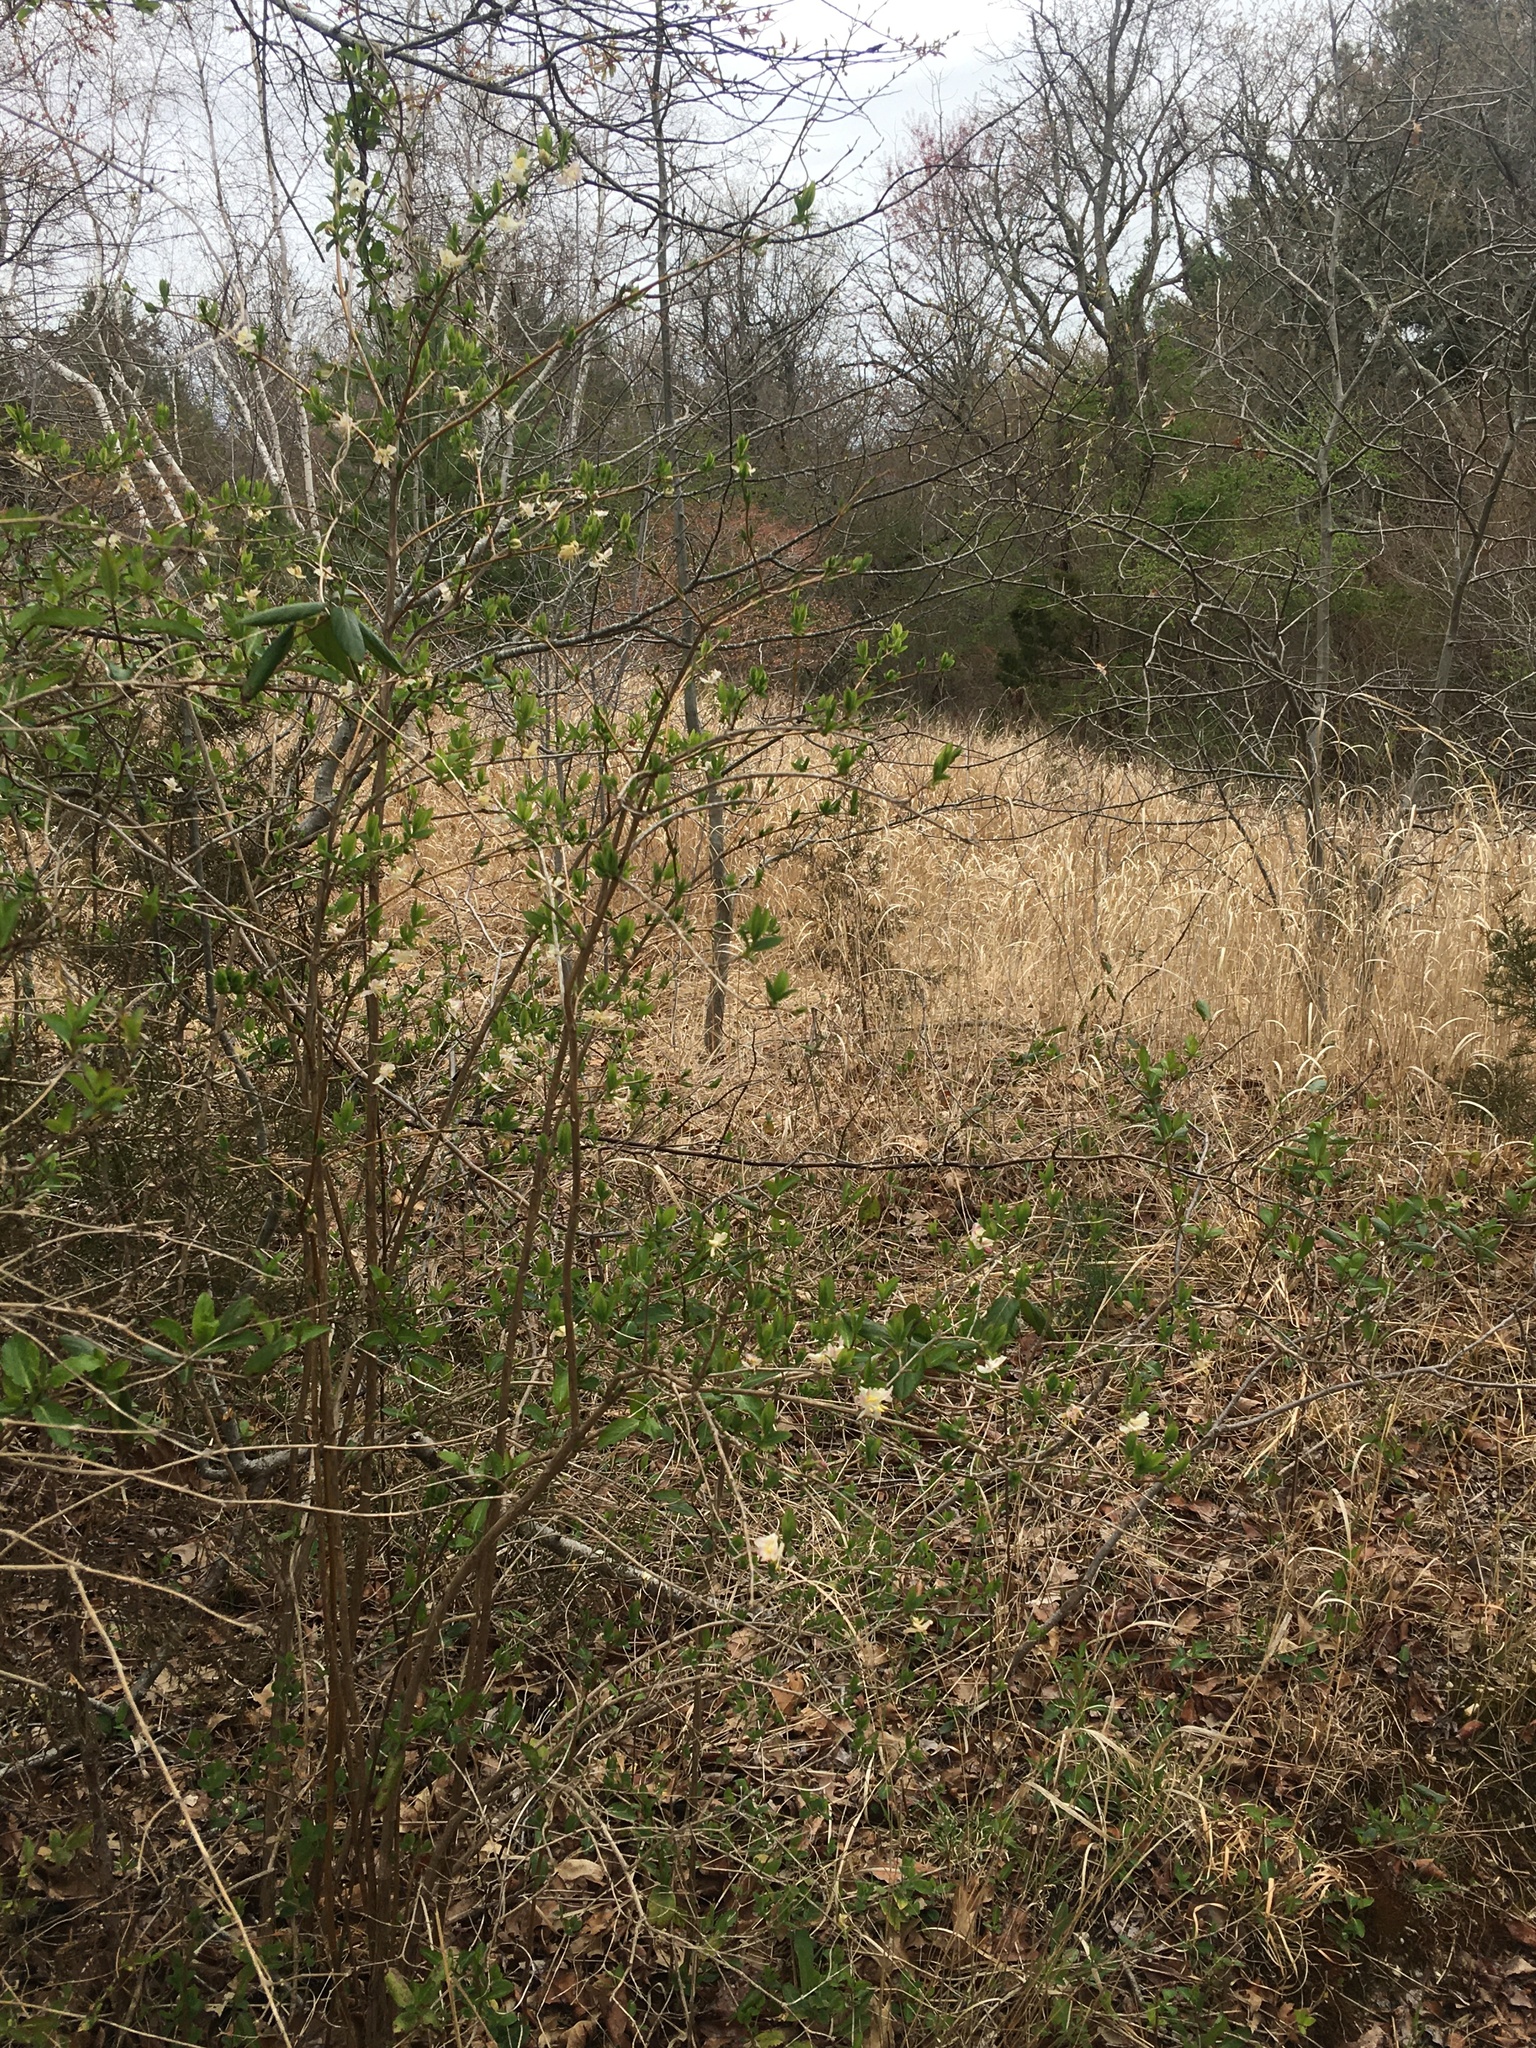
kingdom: Plantae
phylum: Tracheophyta
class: Magnoliopsida
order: Dipsacales
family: Caprifoliaceae
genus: Lonicera
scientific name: Lonicera fragrantissima
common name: Fragrant honeysuckle
